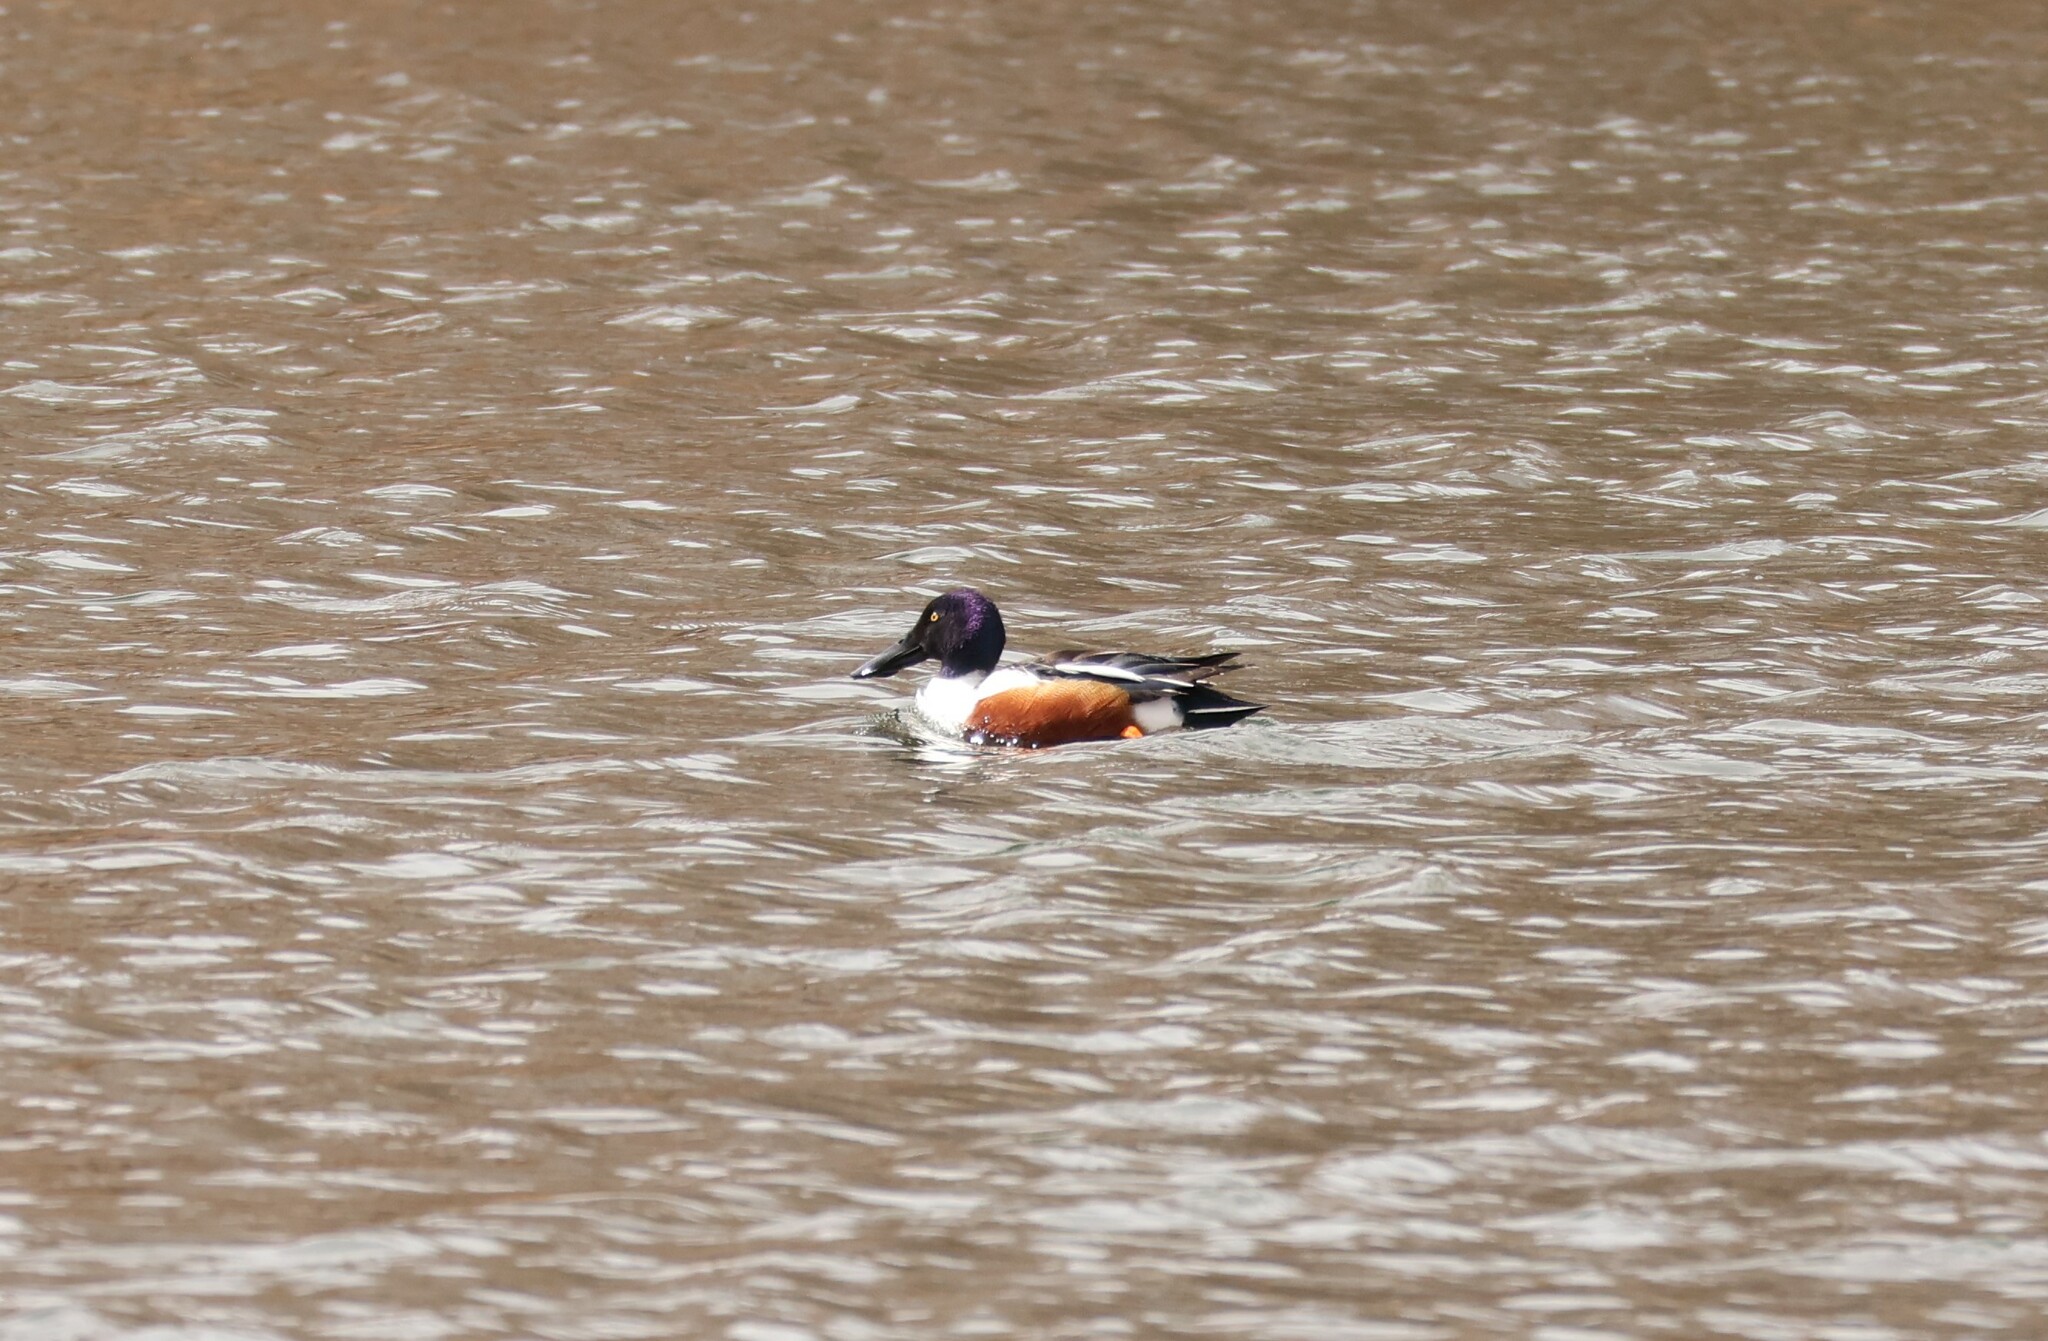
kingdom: Animalia
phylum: Chordata
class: Aves
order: Anseriformes
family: Anatidae
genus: Spatula
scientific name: Spatula clypeata
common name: Northern shoveler
